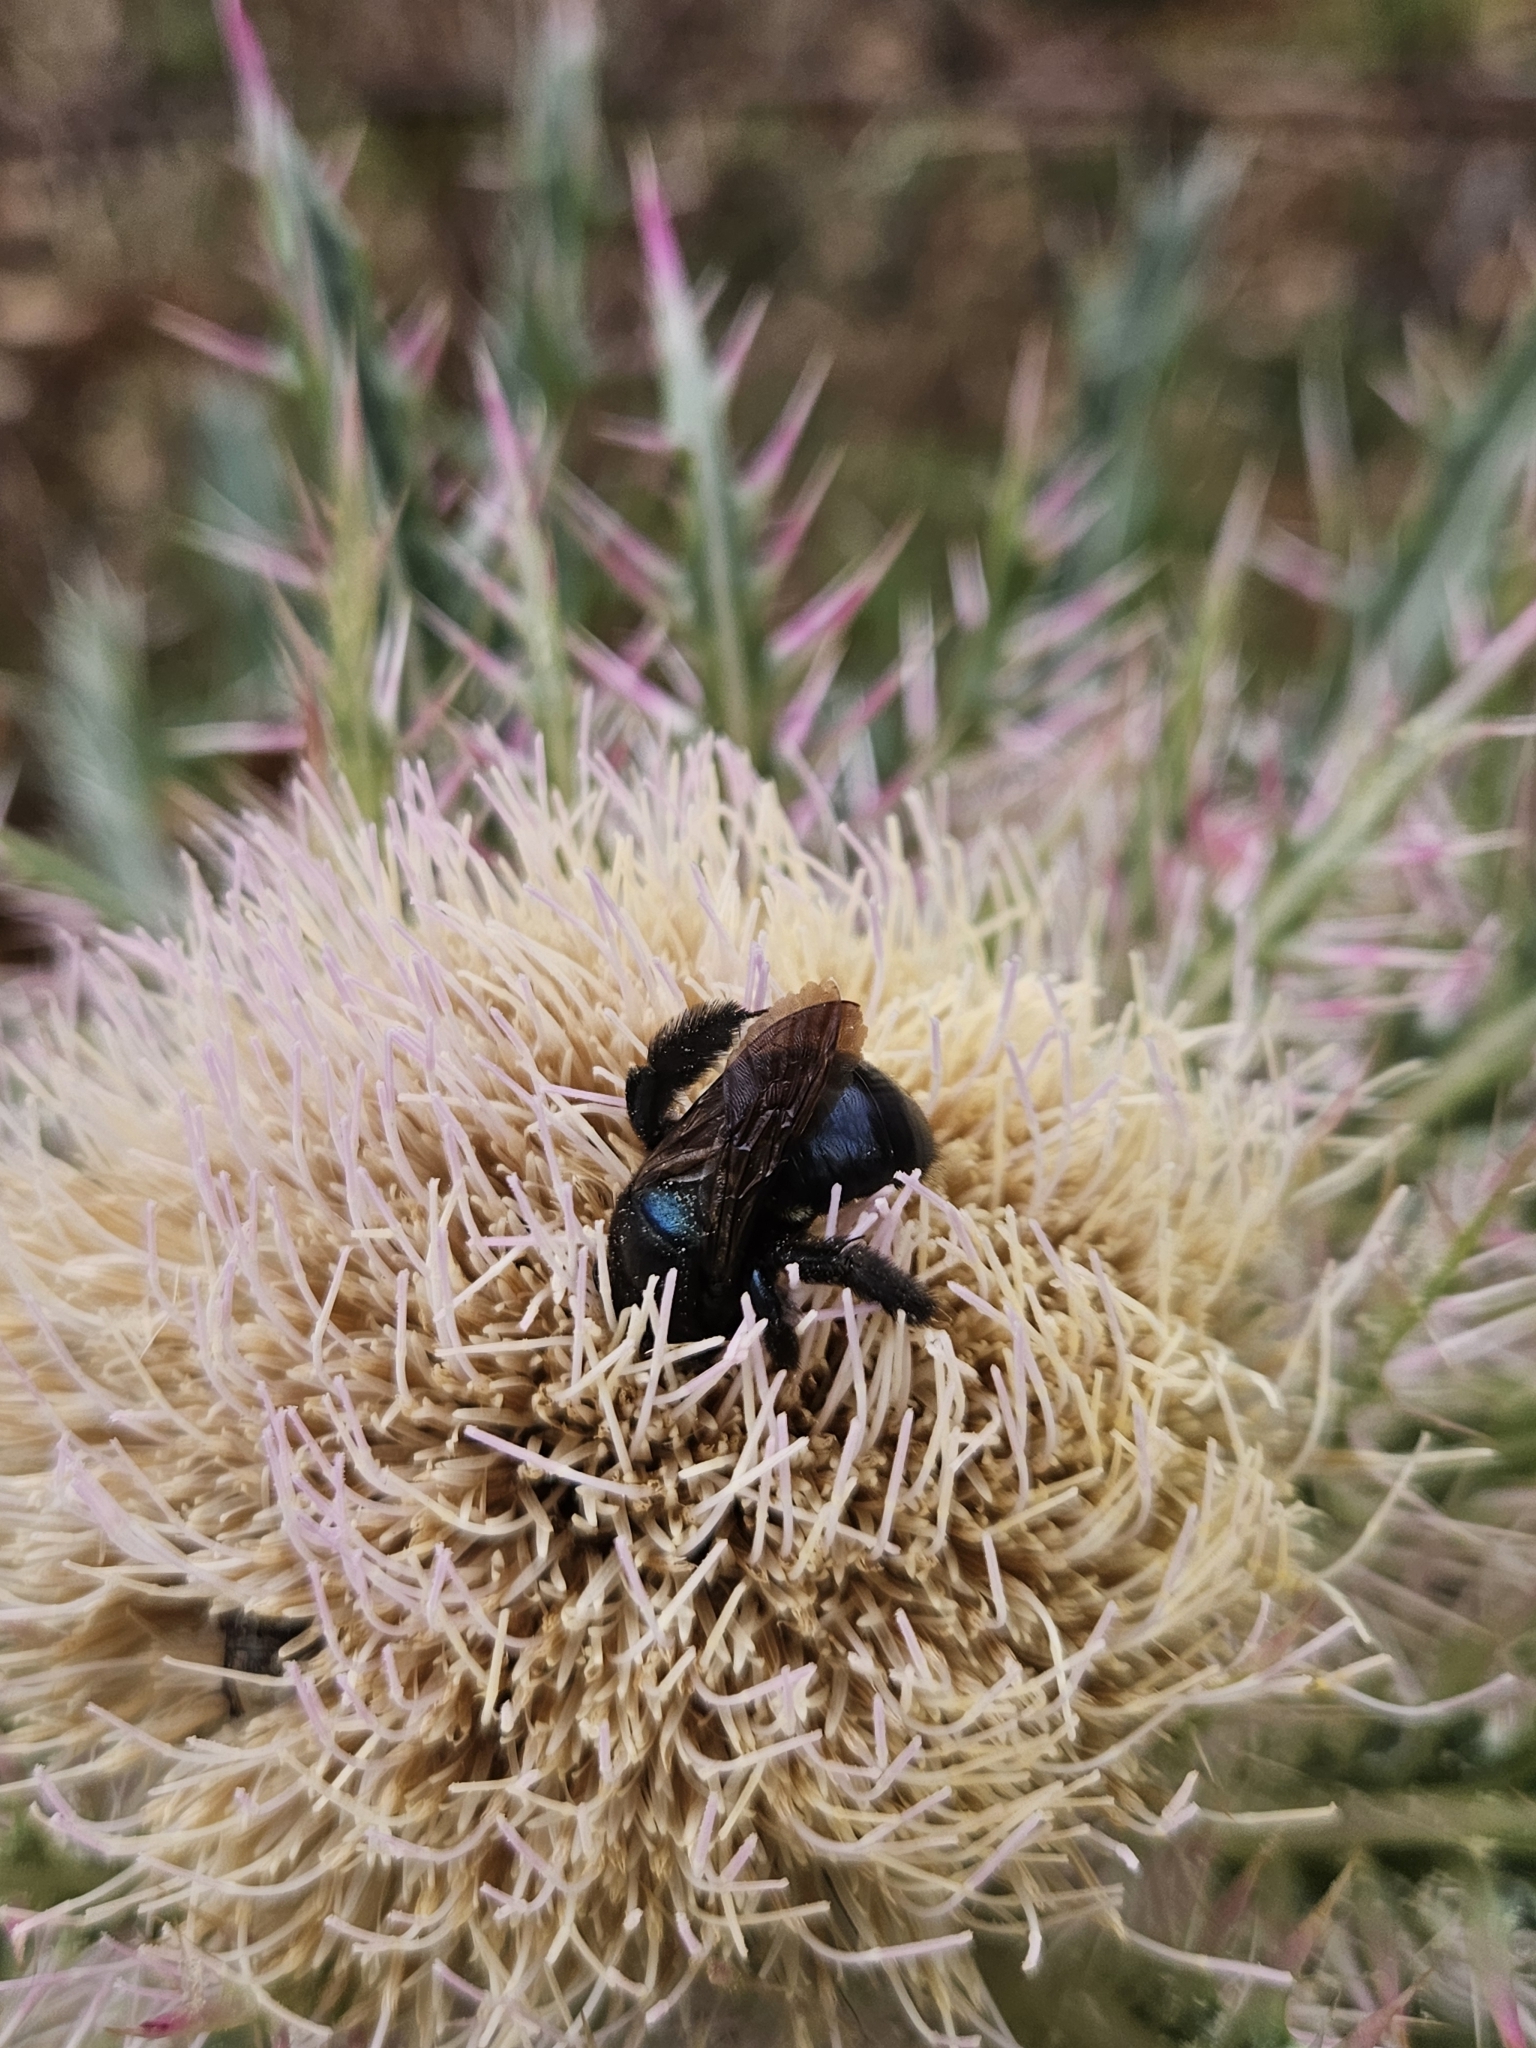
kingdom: Animalia
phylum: Arthropoda
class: Insecta
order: Hymenoptera
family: Apidae
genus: Xylocopa
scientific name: Xylocopa micans
